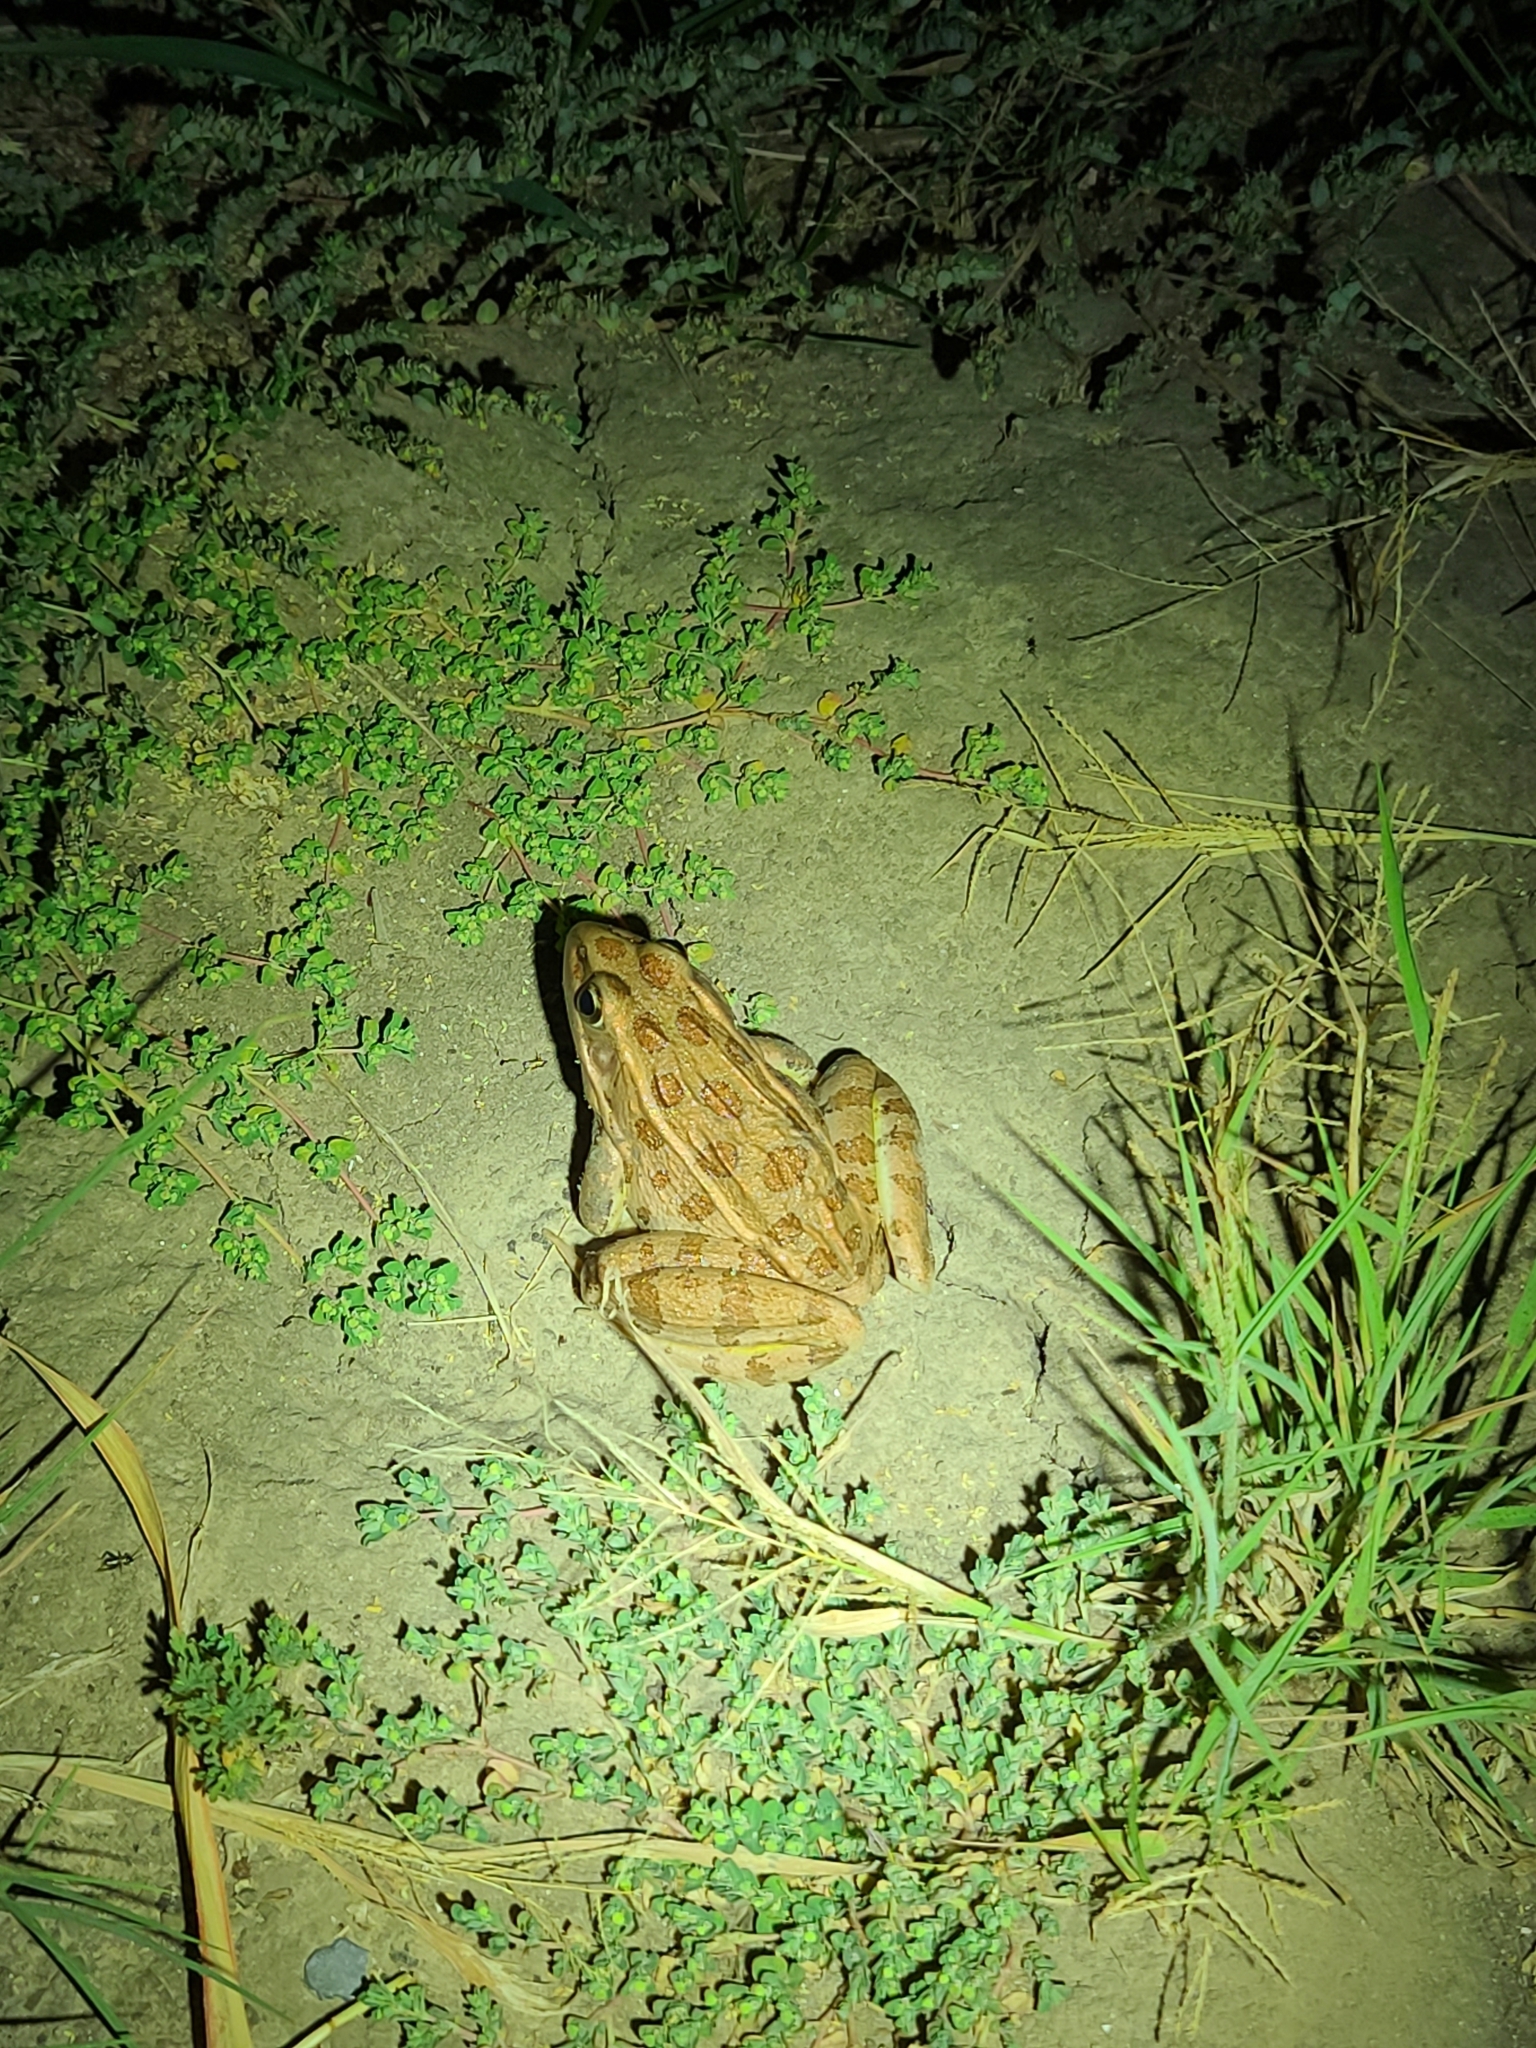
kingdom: Animalia
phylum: Chordata
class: Amphibia
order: Anura
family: Ranidae
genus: Lithobates
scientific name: Lithobates blairi
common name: Plains leopard frog
